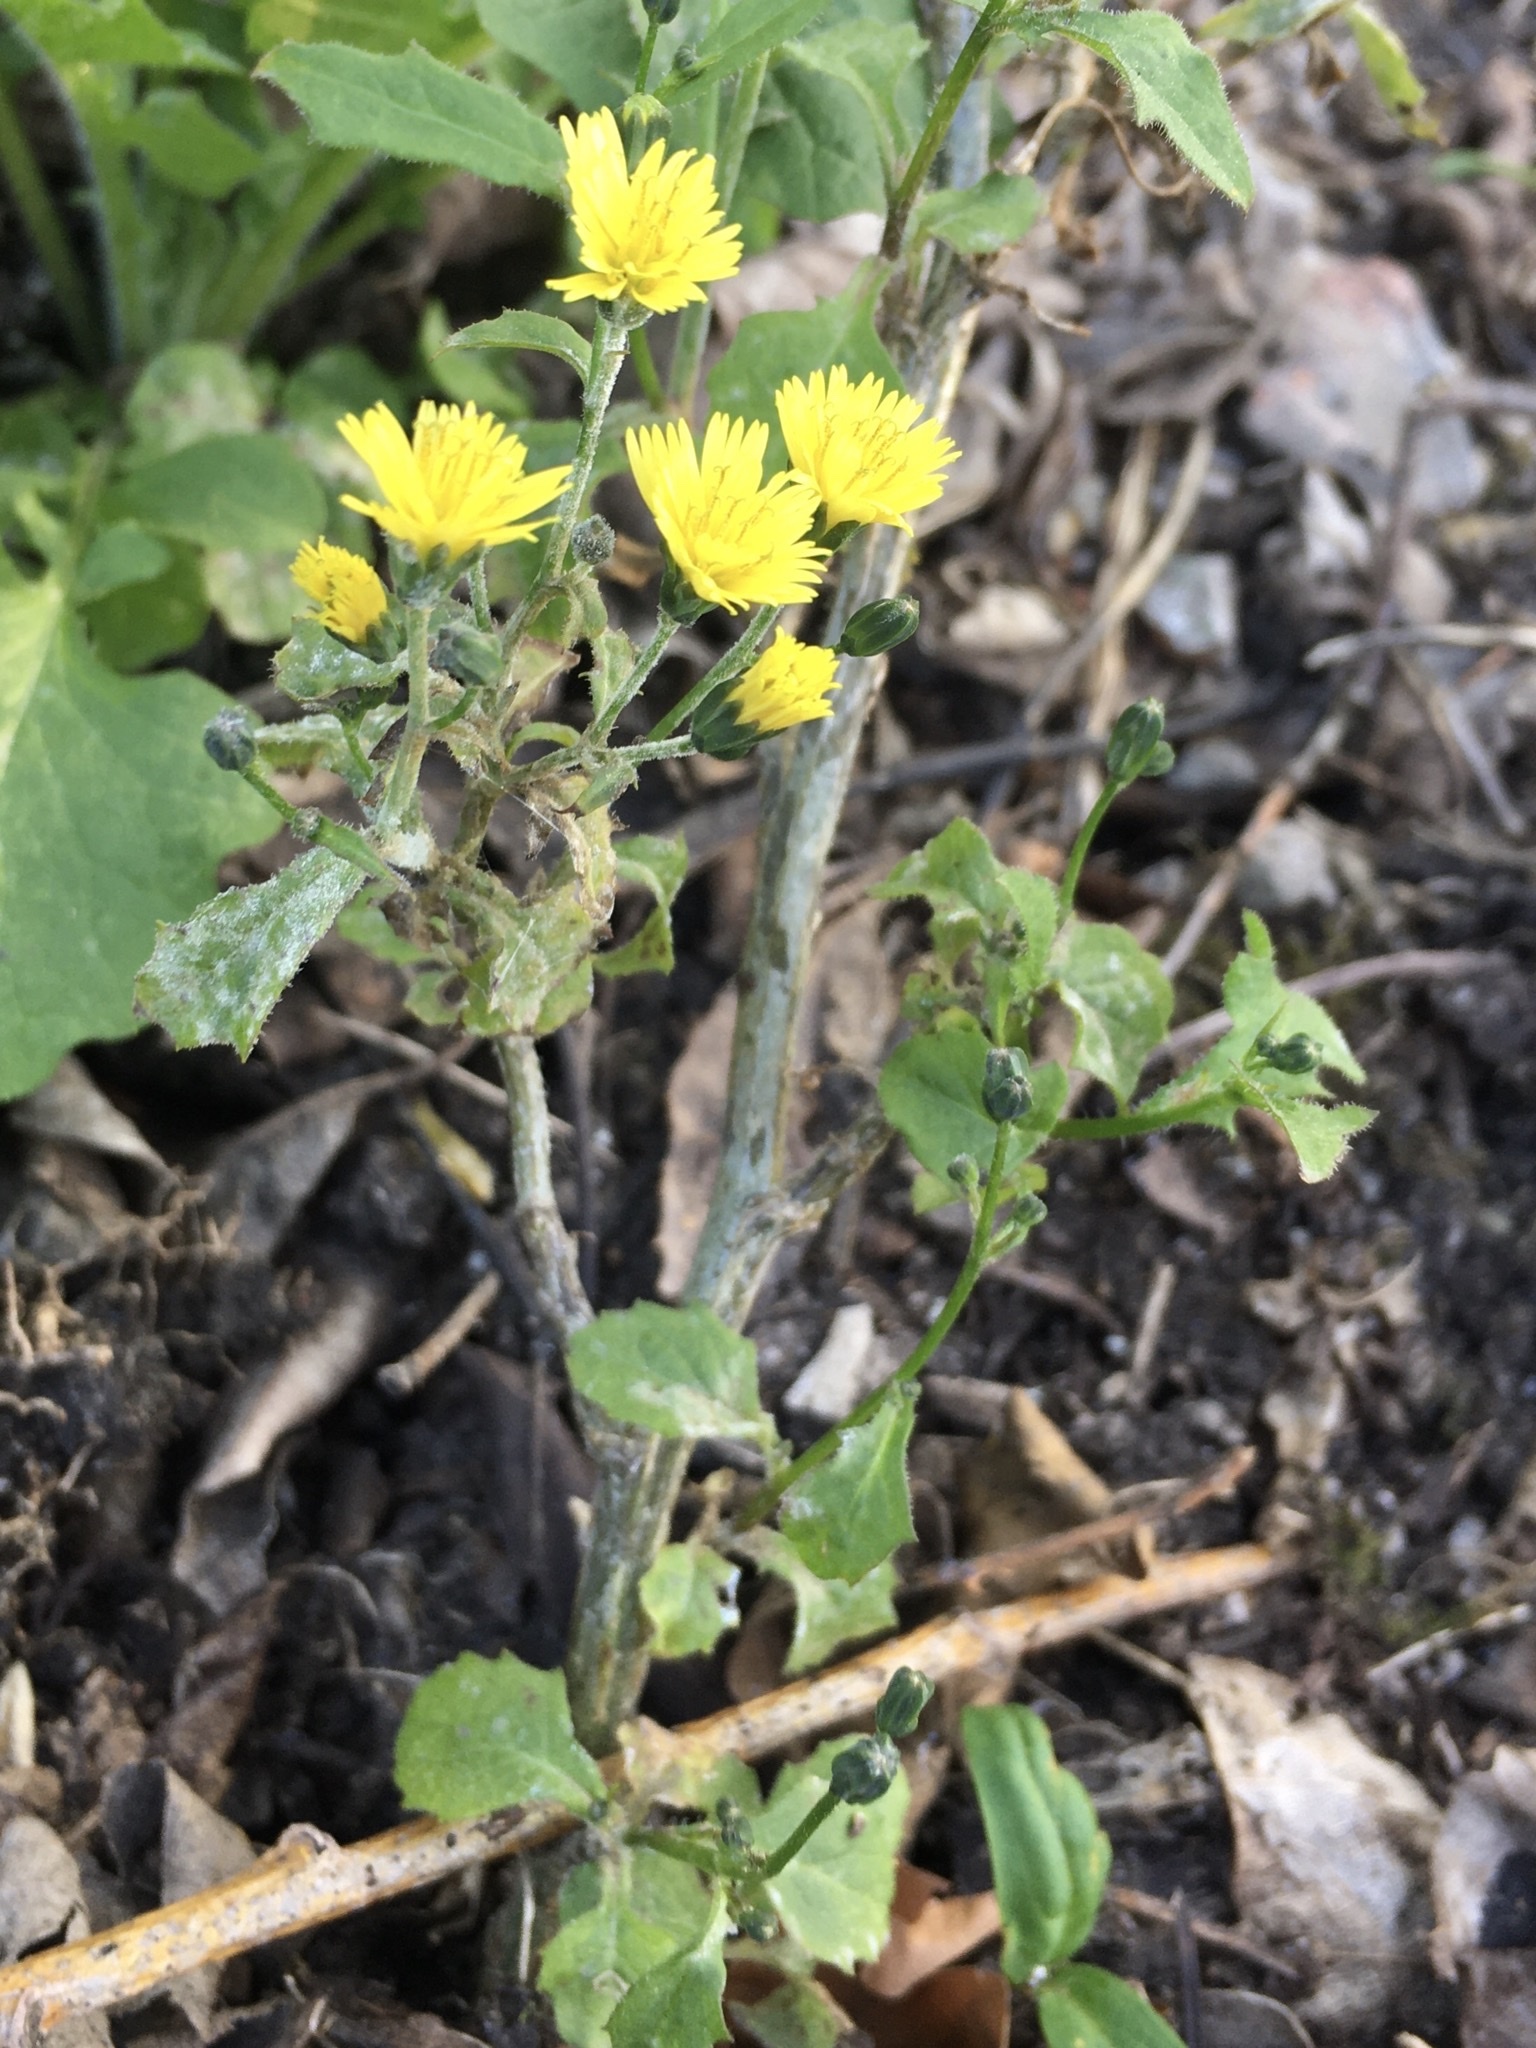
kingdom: Plantae
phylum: Tracheophyta
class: Magnoliopsida
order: Asterales
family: Asteraceae
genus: Lapsana
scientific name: Lapsana communis
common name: Nipplewort
